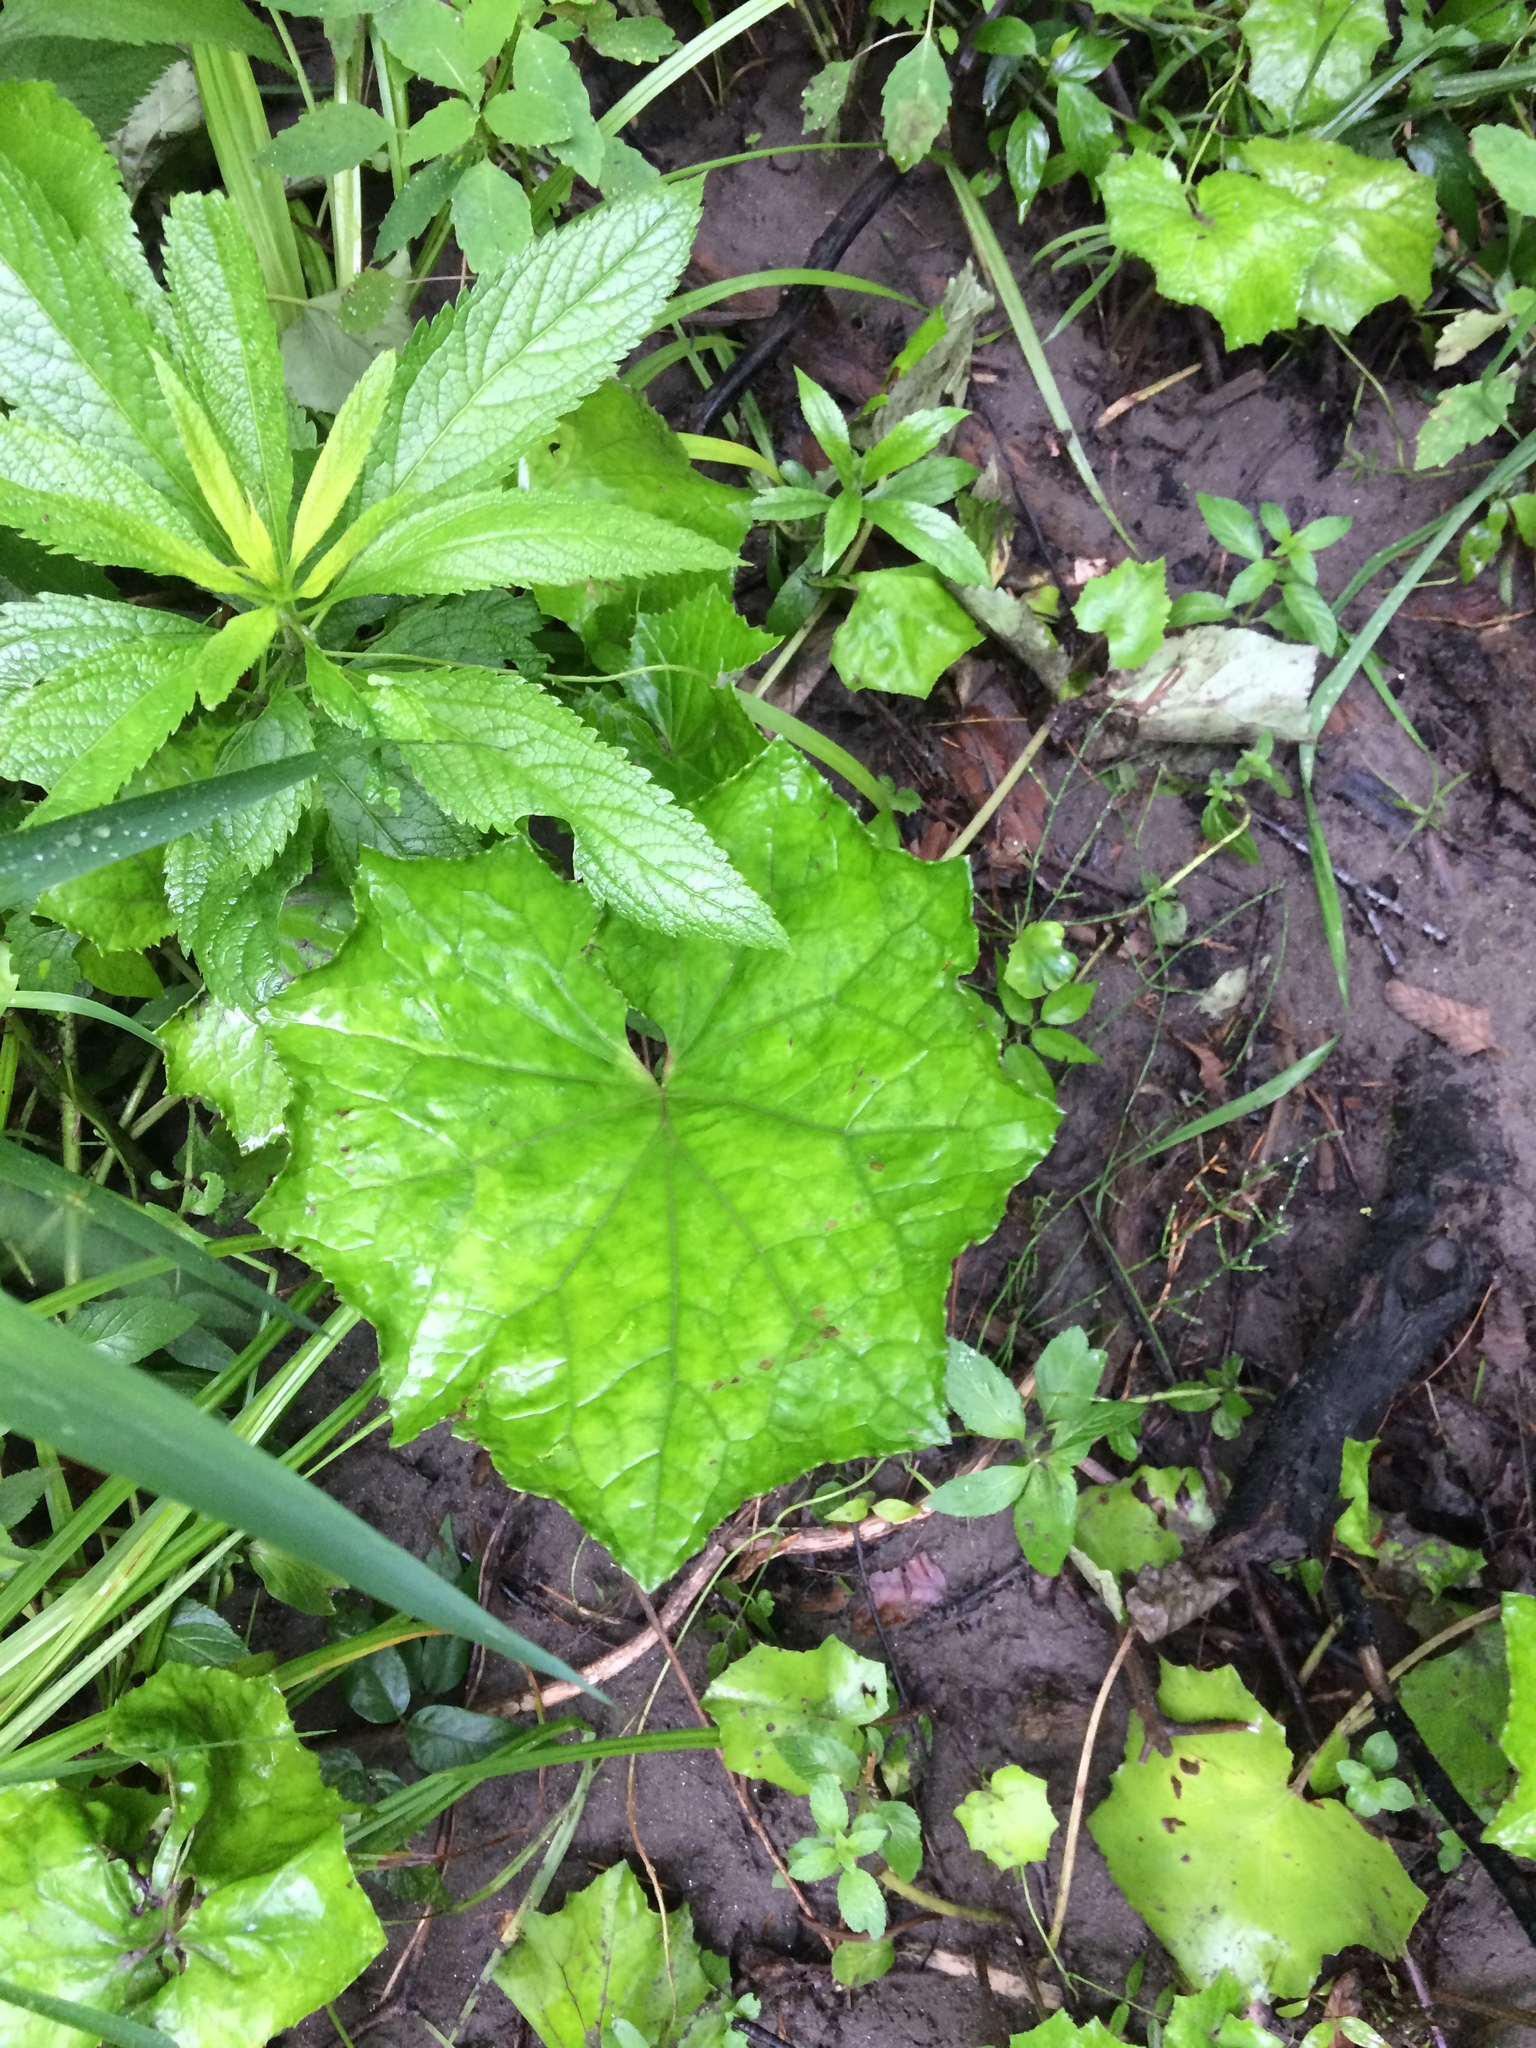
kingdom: Plantae
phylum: Tracheophyta
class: Magnoliopsida
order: Asterales
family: Asteraceae
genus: Tussilago
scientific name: Tussilago farfara
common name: Coltsfoot
